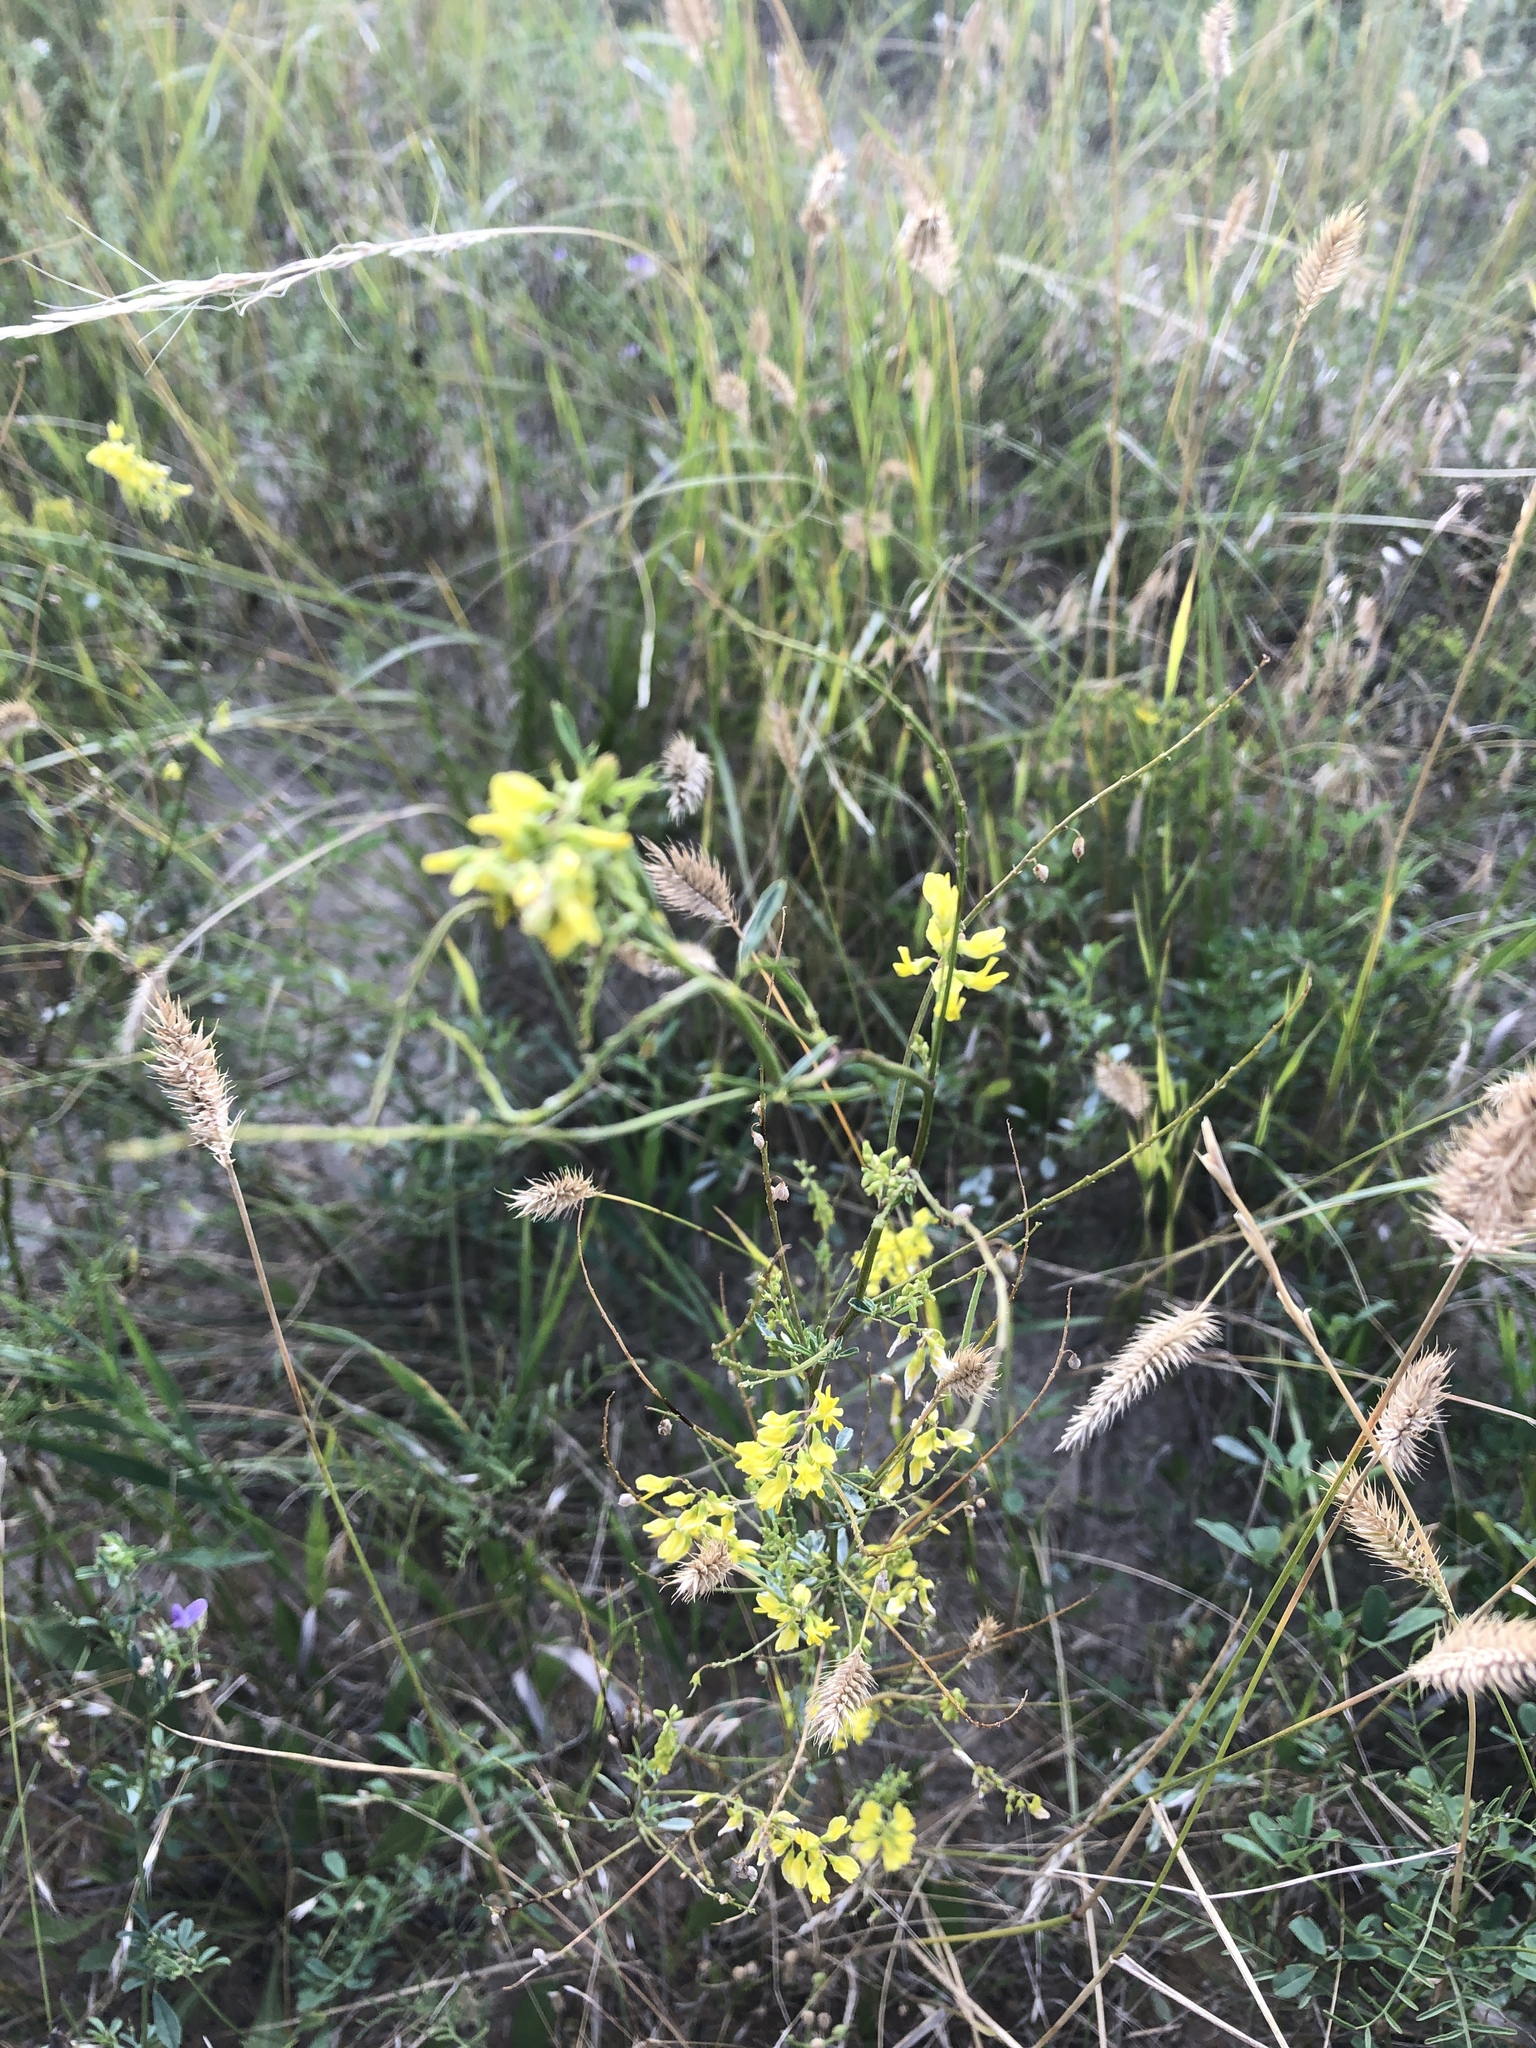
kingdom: Plantae
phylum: Tracheophyta
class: Magnoliopsida
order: Fabales
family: Fabaceae
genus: Melilotus
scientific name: Melilotus officinalis
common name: Sweetclover
